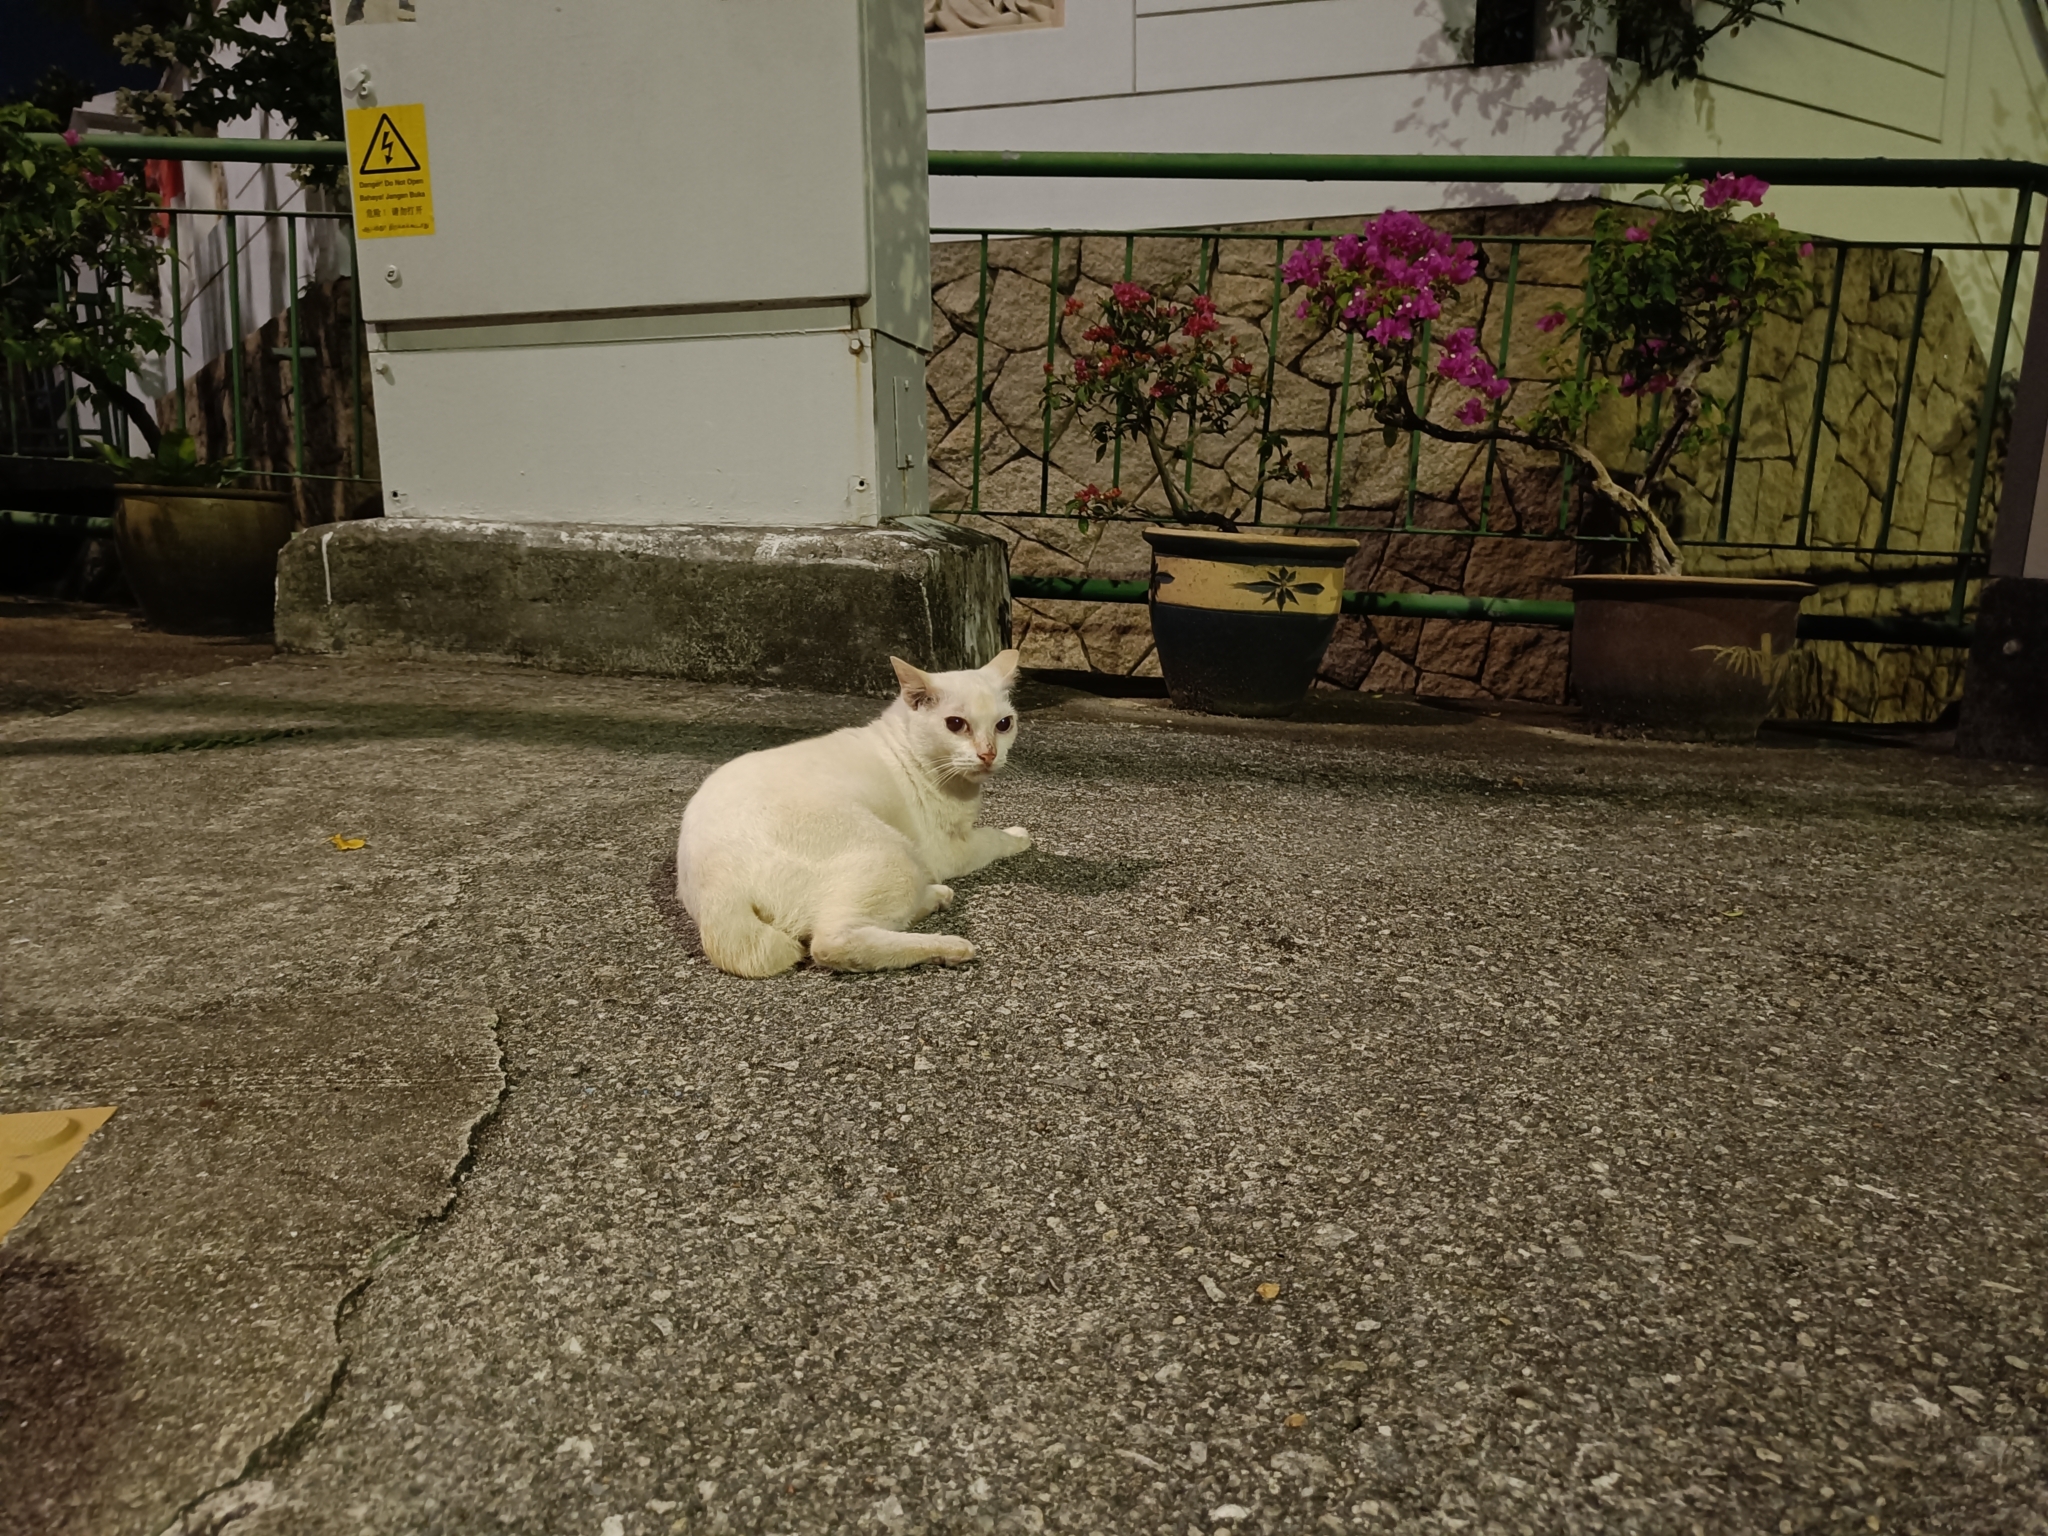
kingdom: Animalia
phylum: Chordata
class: Mammalia
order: Carnivora
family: Felidae
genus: Felis
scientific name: Felis catus
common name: Domestic cat
